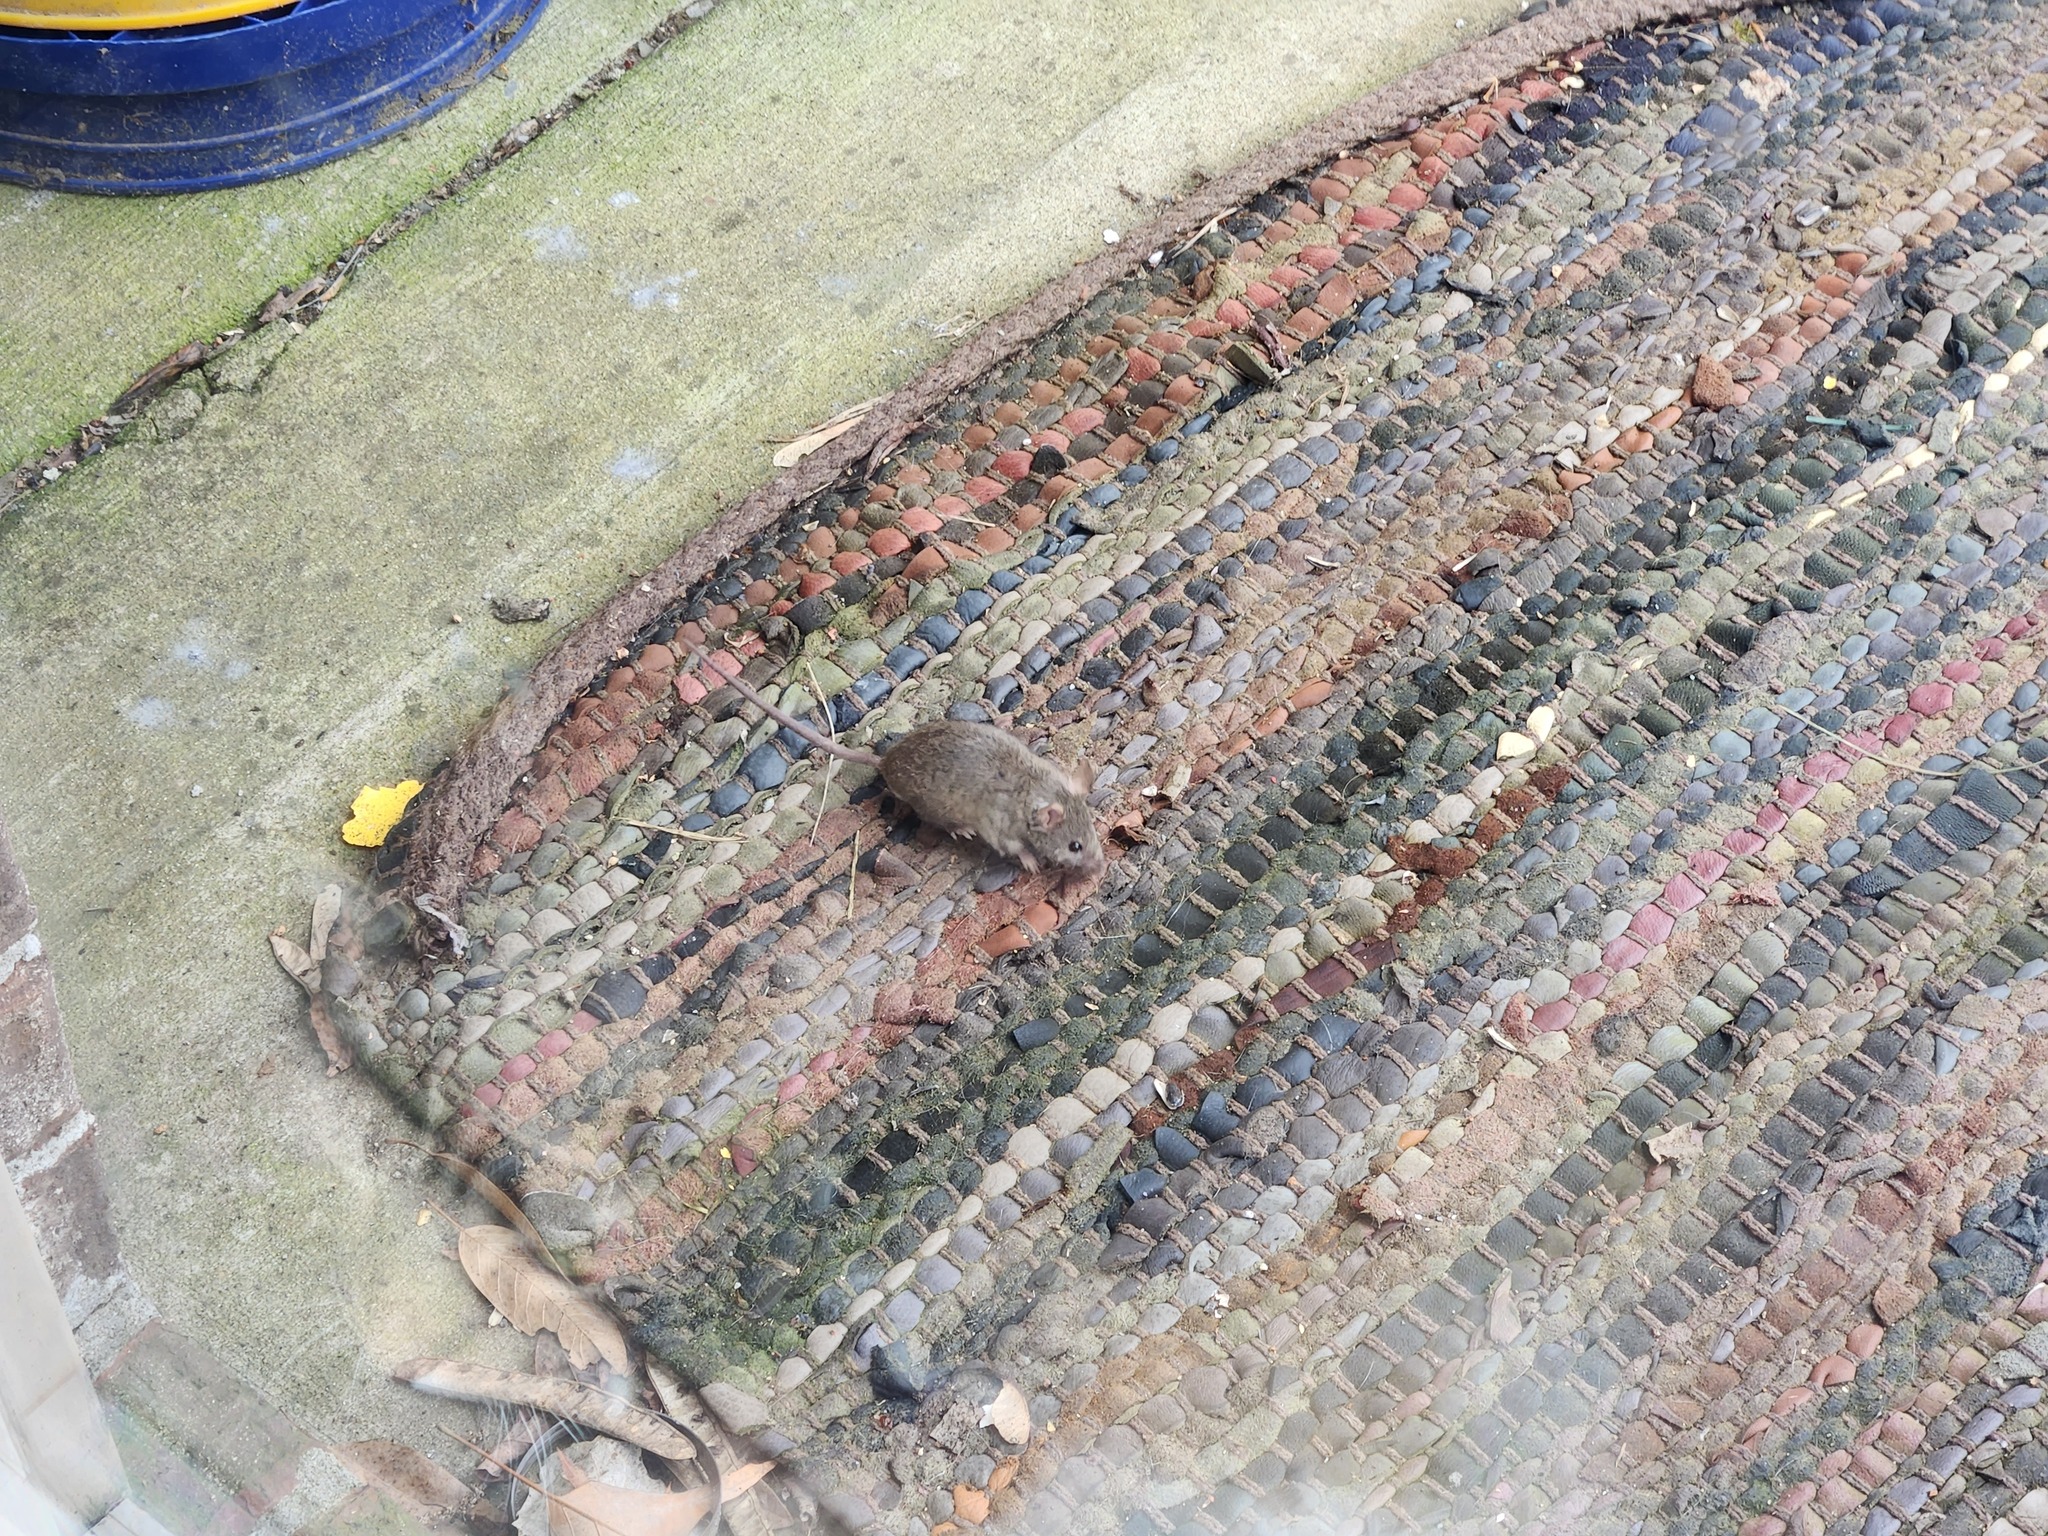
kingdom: Animalia
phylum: Chordata
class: Mammalia
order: Rodentia
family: Muridae
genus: Mus
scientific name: Mus musculus
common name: House mouse
